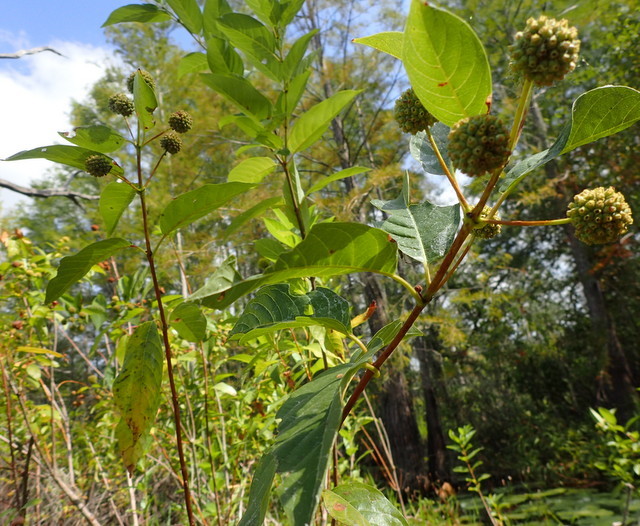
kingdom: Plantae
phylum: Tracheophyta
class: Magnoliopsida
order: Gentianales
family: Rubiaceae
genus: Cephalanthus
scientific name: Cephalanthus occidentalis
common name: Button-willow
